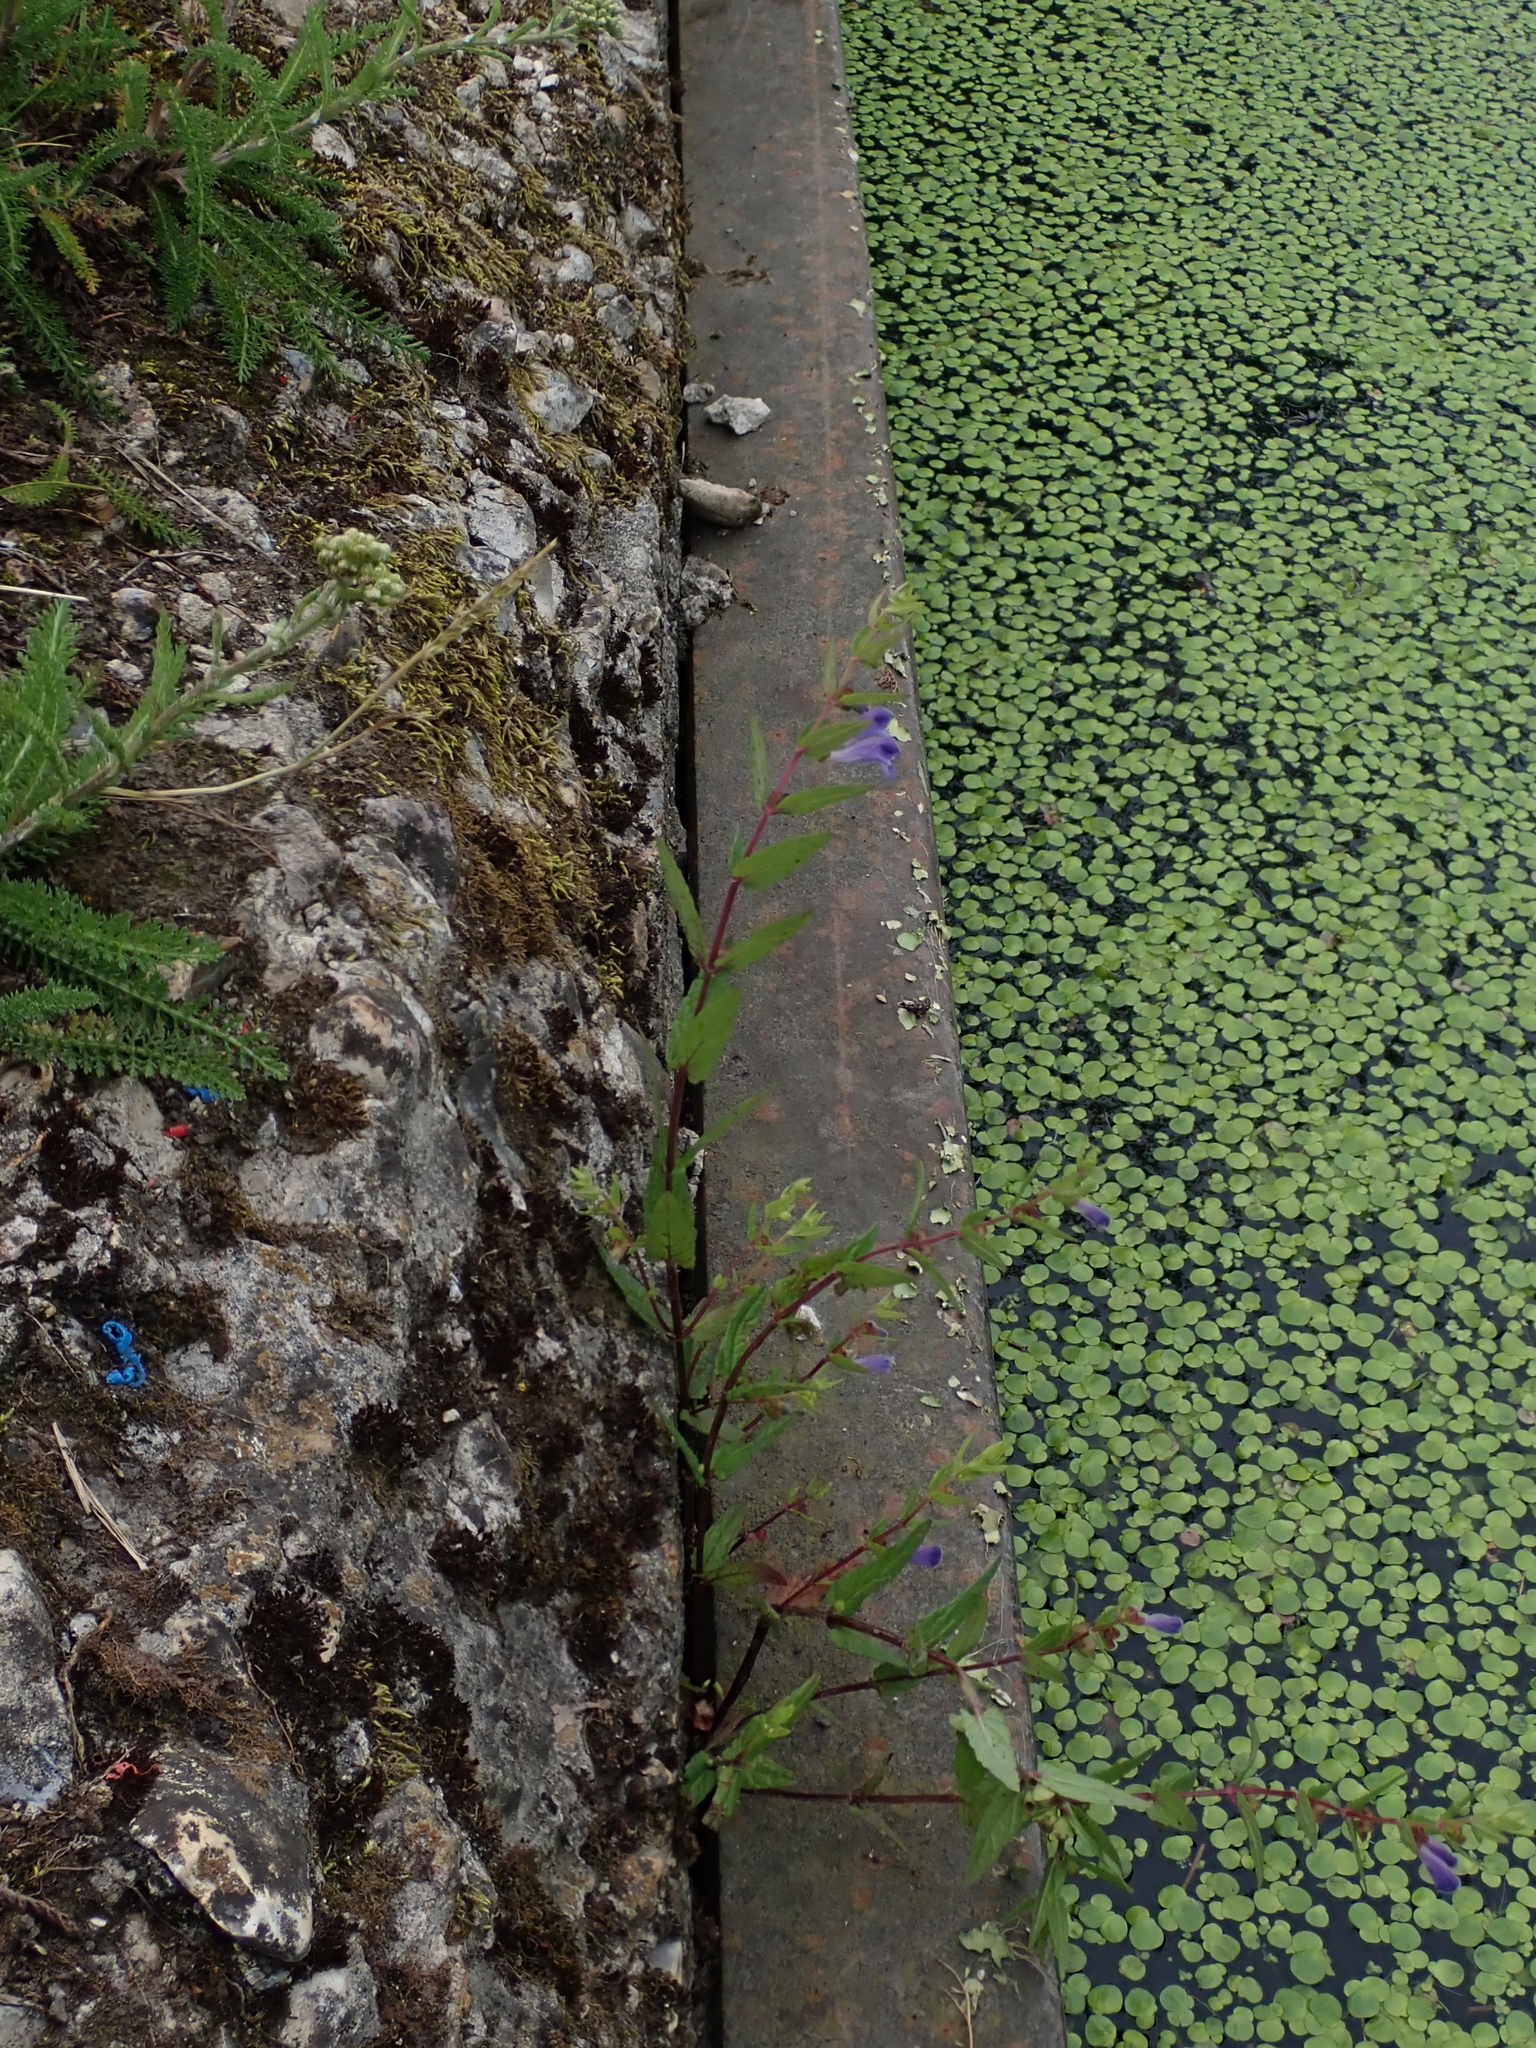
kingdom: Plantae
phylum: Tracheophyta
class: Magnoliopsida
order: Lamiales
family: Lamiaceae
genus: Scutellaria
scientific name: Scutellaria galericulata
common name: Skullcap
